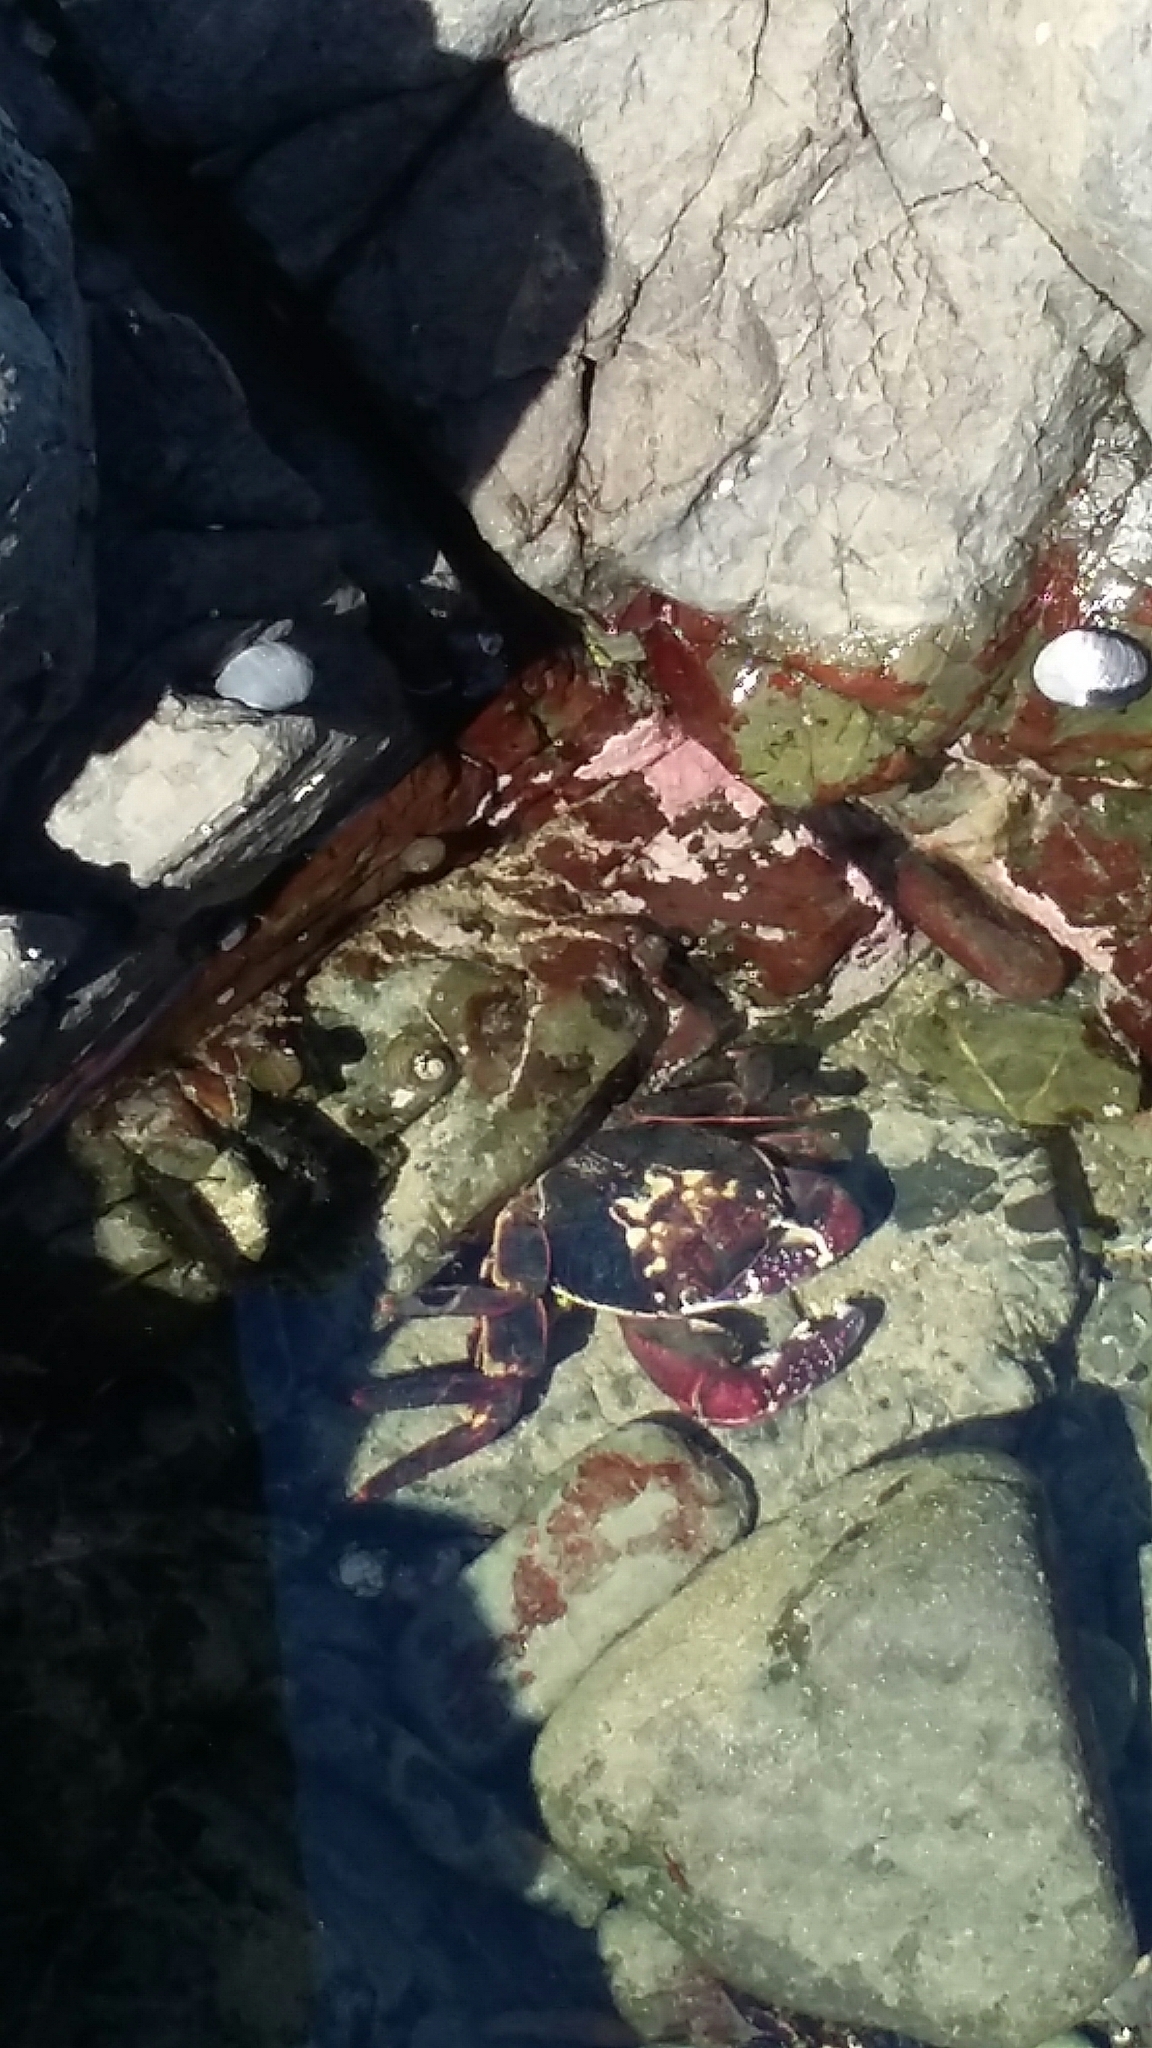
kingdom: Animalia
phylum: Arthropoda
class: Malacostraca
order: Decapoda
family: Grapsidae
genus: Leptograpsus
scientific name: Leptograpsus variegatus
